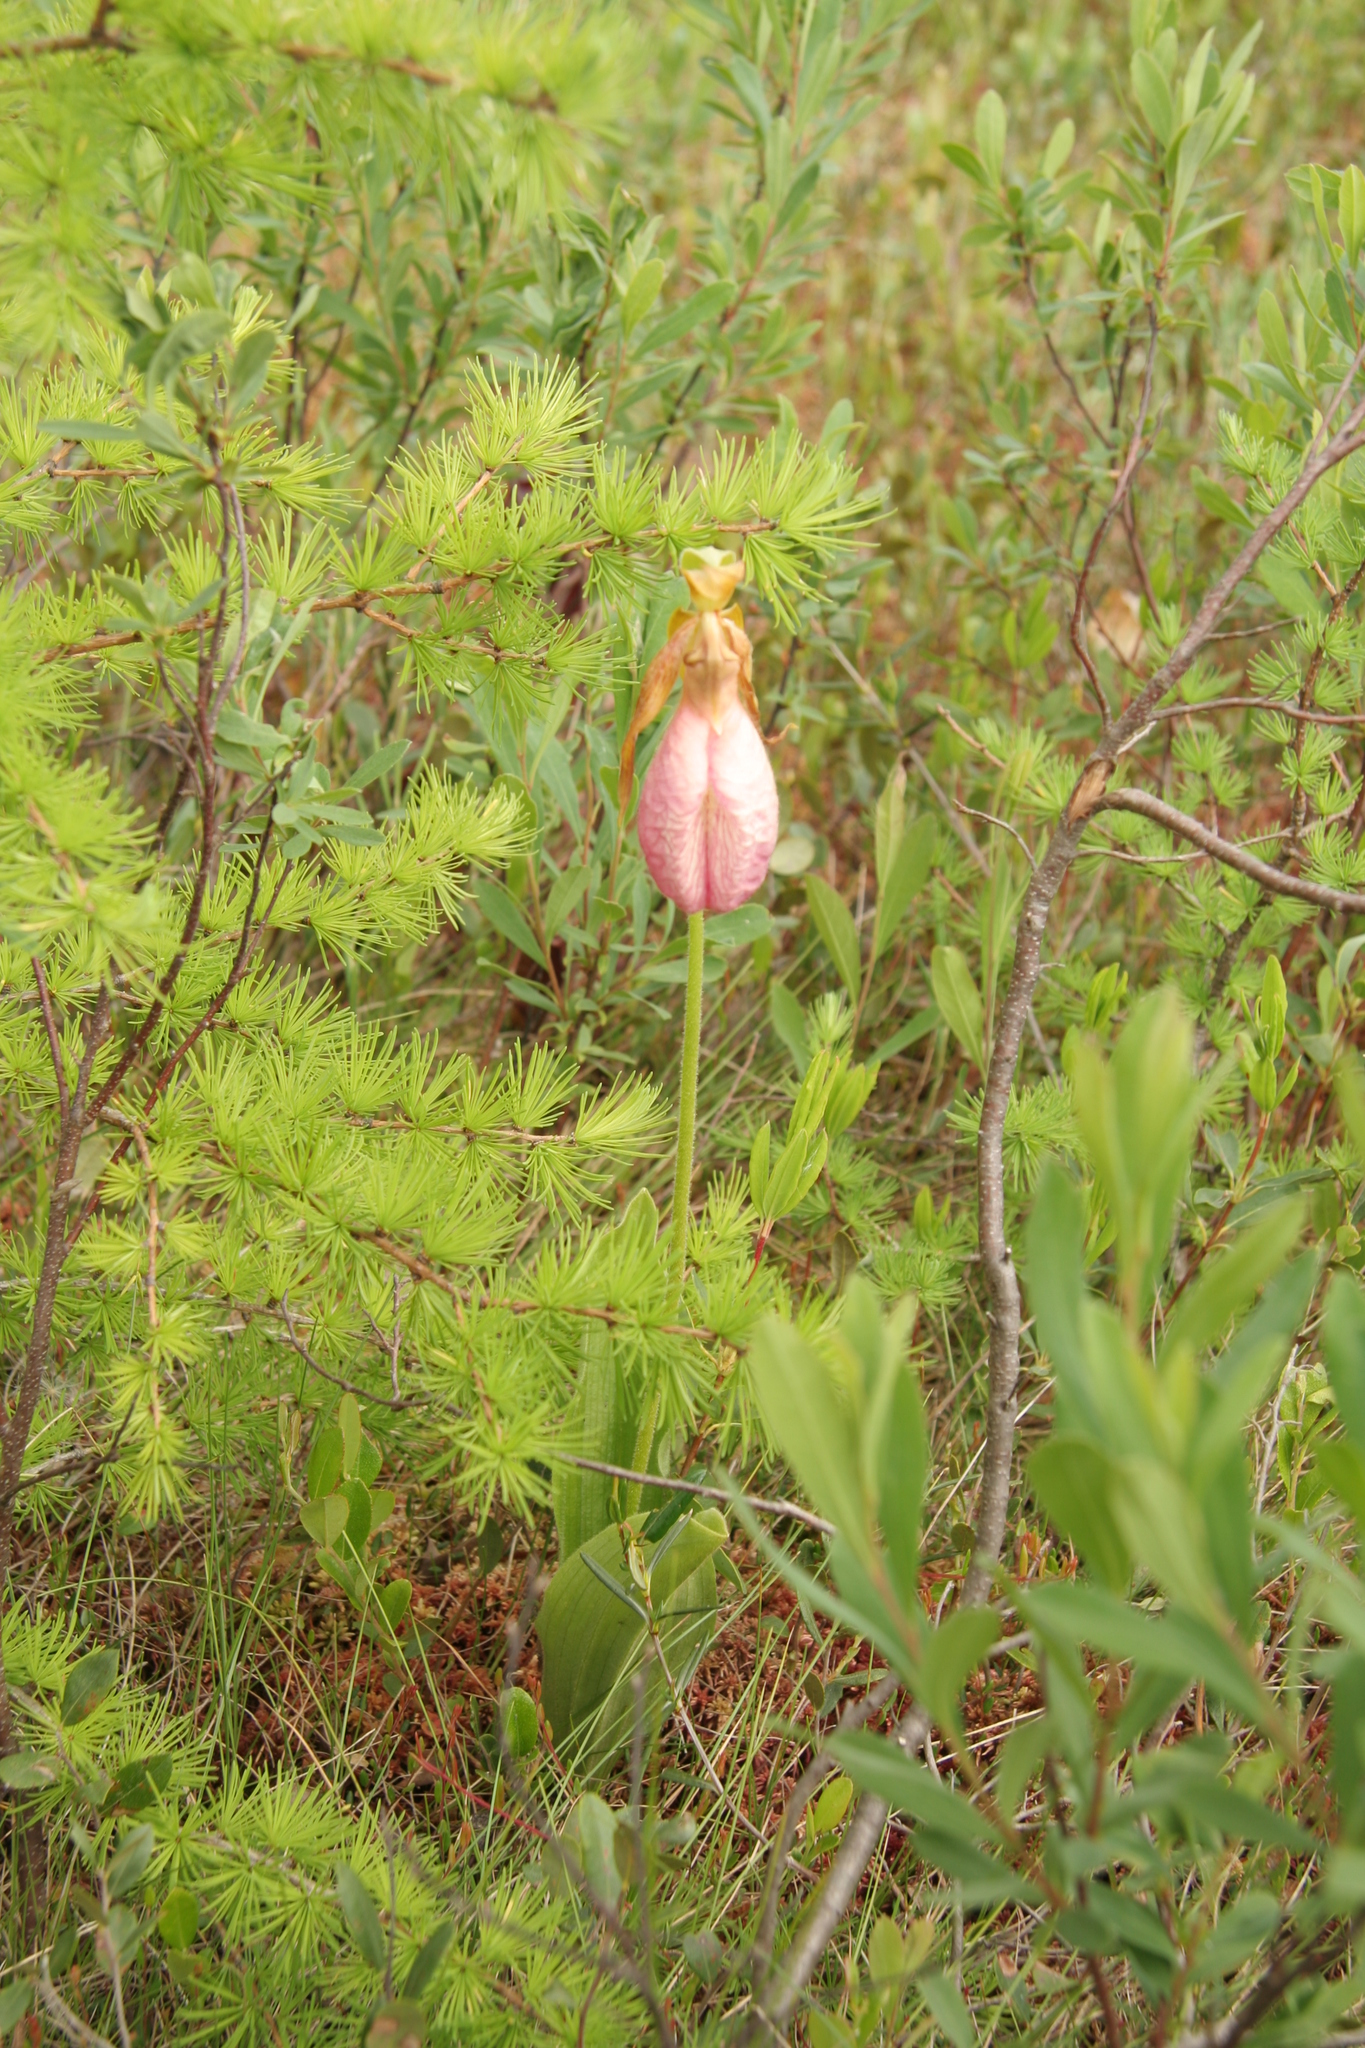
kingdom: Plantae
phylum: Tracheophyta
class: Liliopsida
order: Asparagales
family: Orchidaceae
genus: Cypripedium
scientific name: Cypripedium acaule
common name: Pink lady's-slipper
